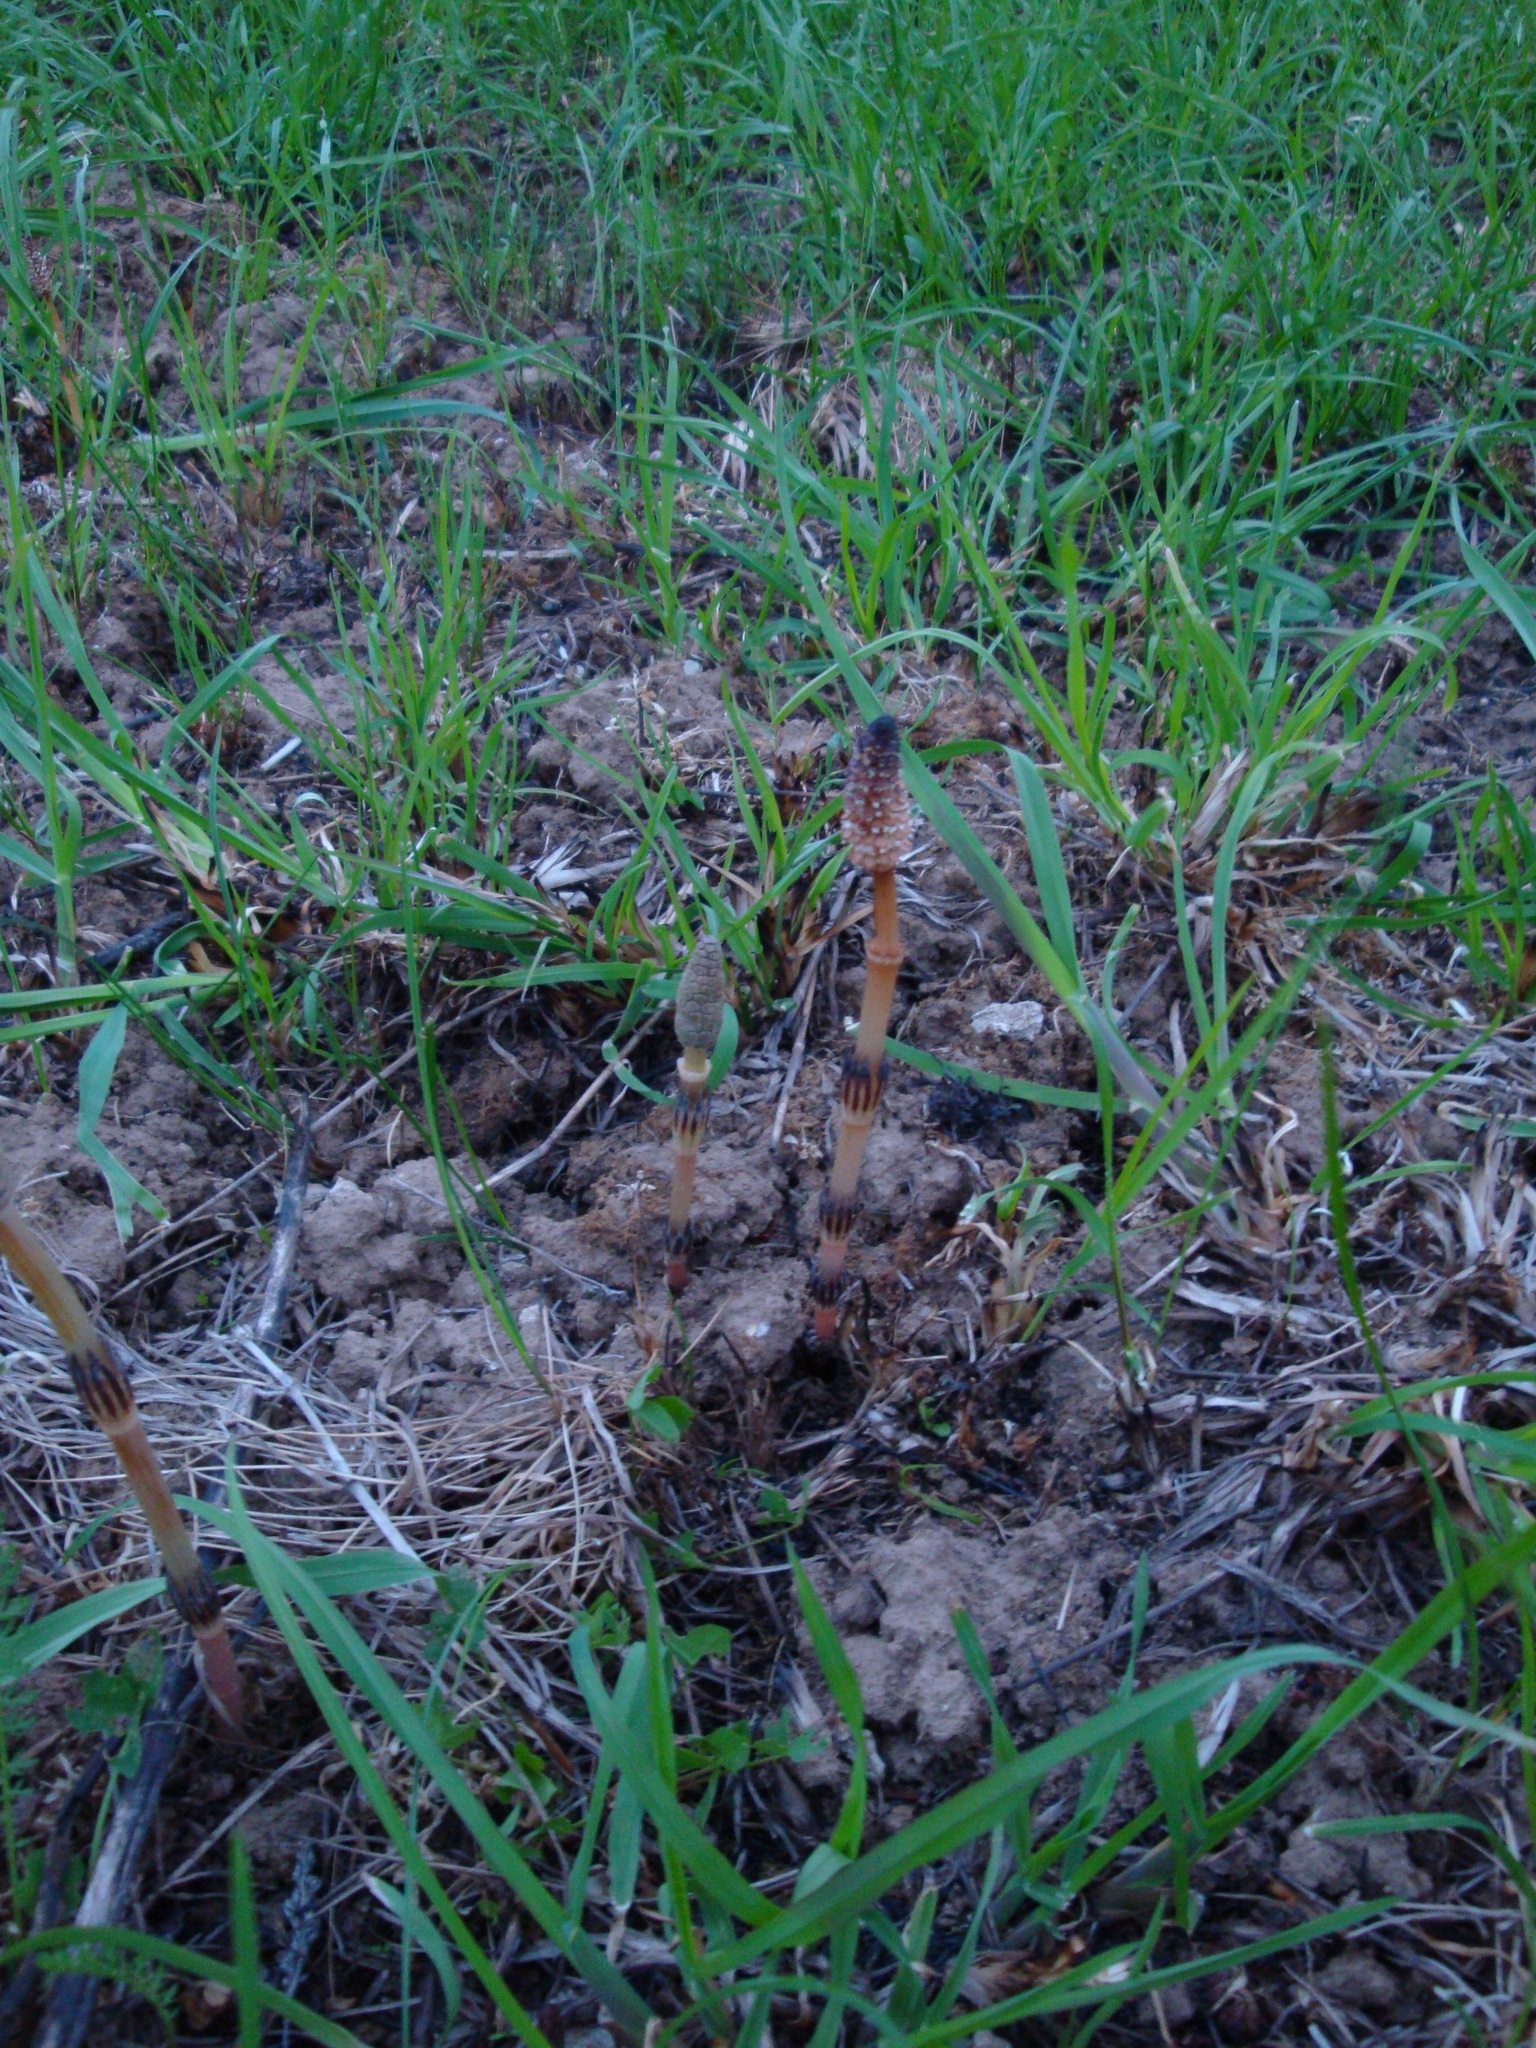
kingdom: Plantae
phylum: Tracheophyta
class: Polypodiopsida
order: Equisetales
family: Equisetaceae
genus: Equisetum
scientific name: Equisetum arvense
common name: Field horsetail
